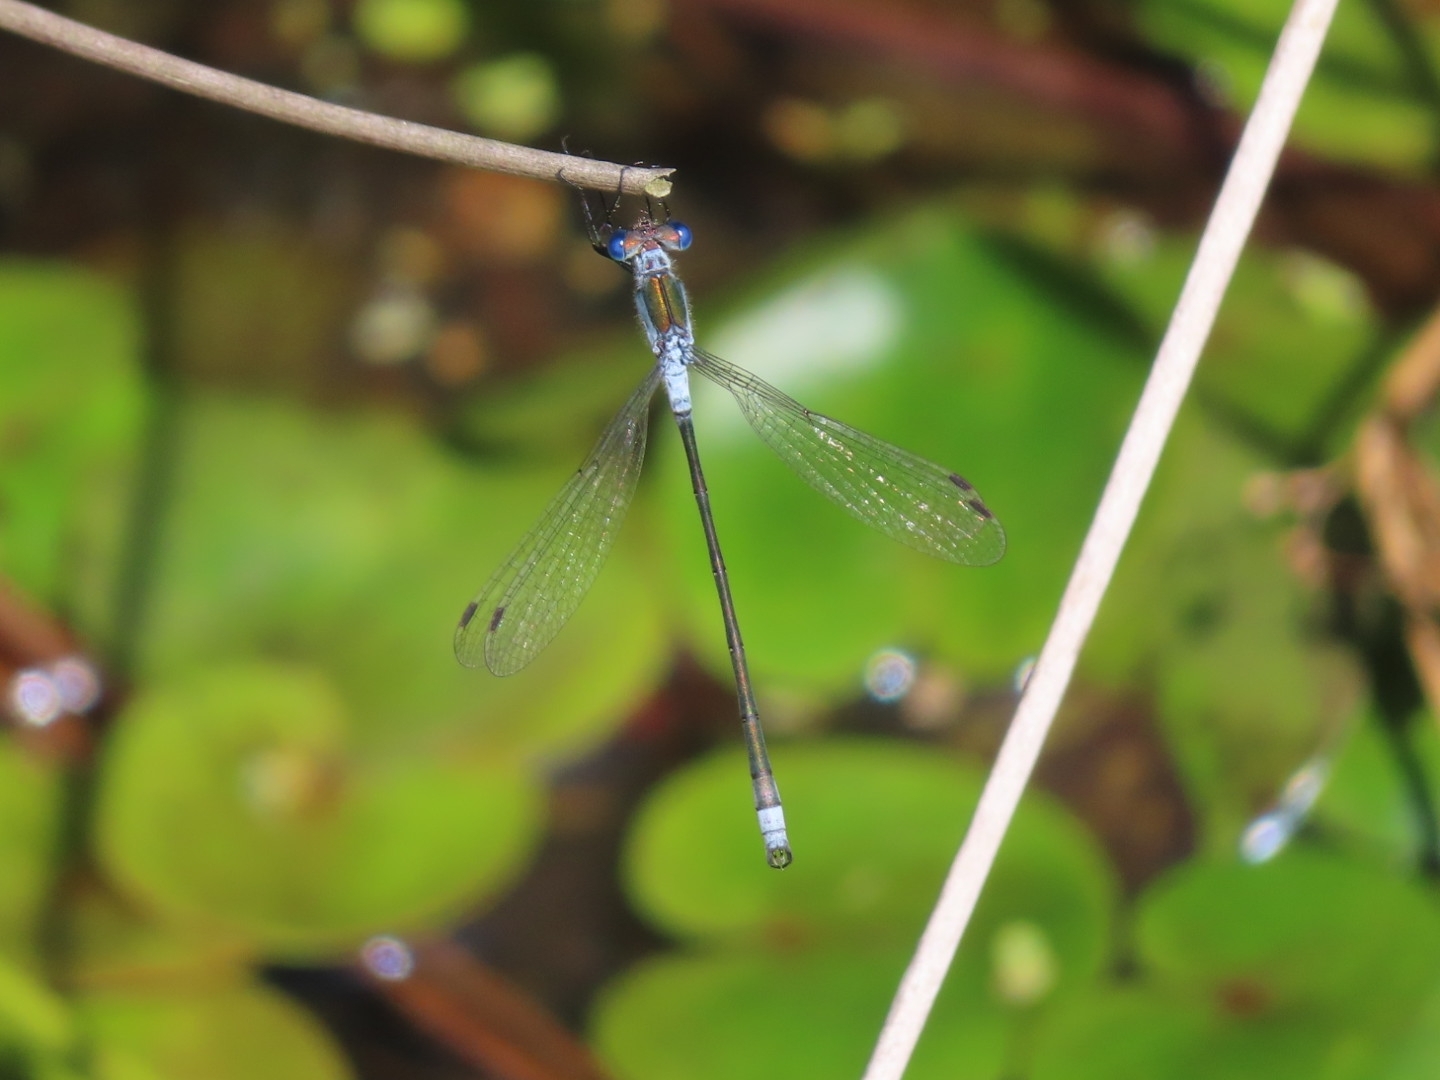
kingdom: Animalia
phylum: Arthropoda
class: Insecta
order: Odonata
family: Lestidae
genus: Lestes
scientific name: Lestes sponsa
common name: Common spreadwing
